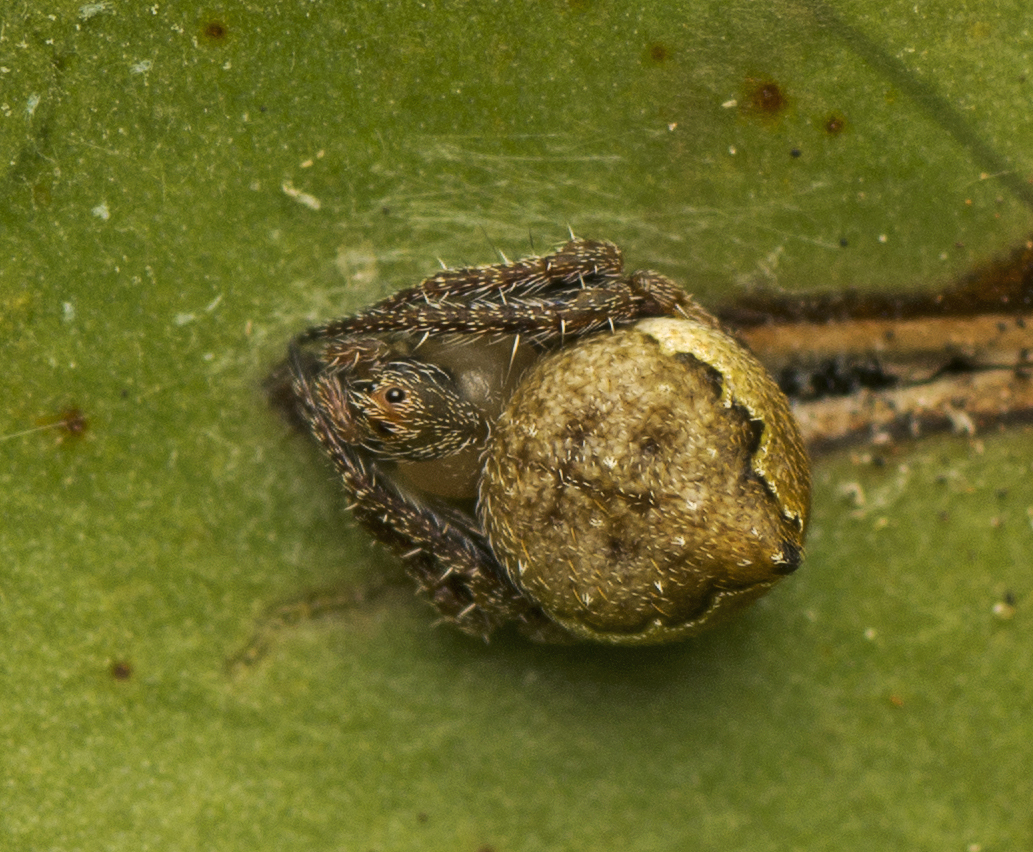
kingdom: Animalia
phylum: Arthropoda
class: Arachnida
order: Araneae
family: Araneidae
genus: Araneus
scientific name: Araneus acuminatus
